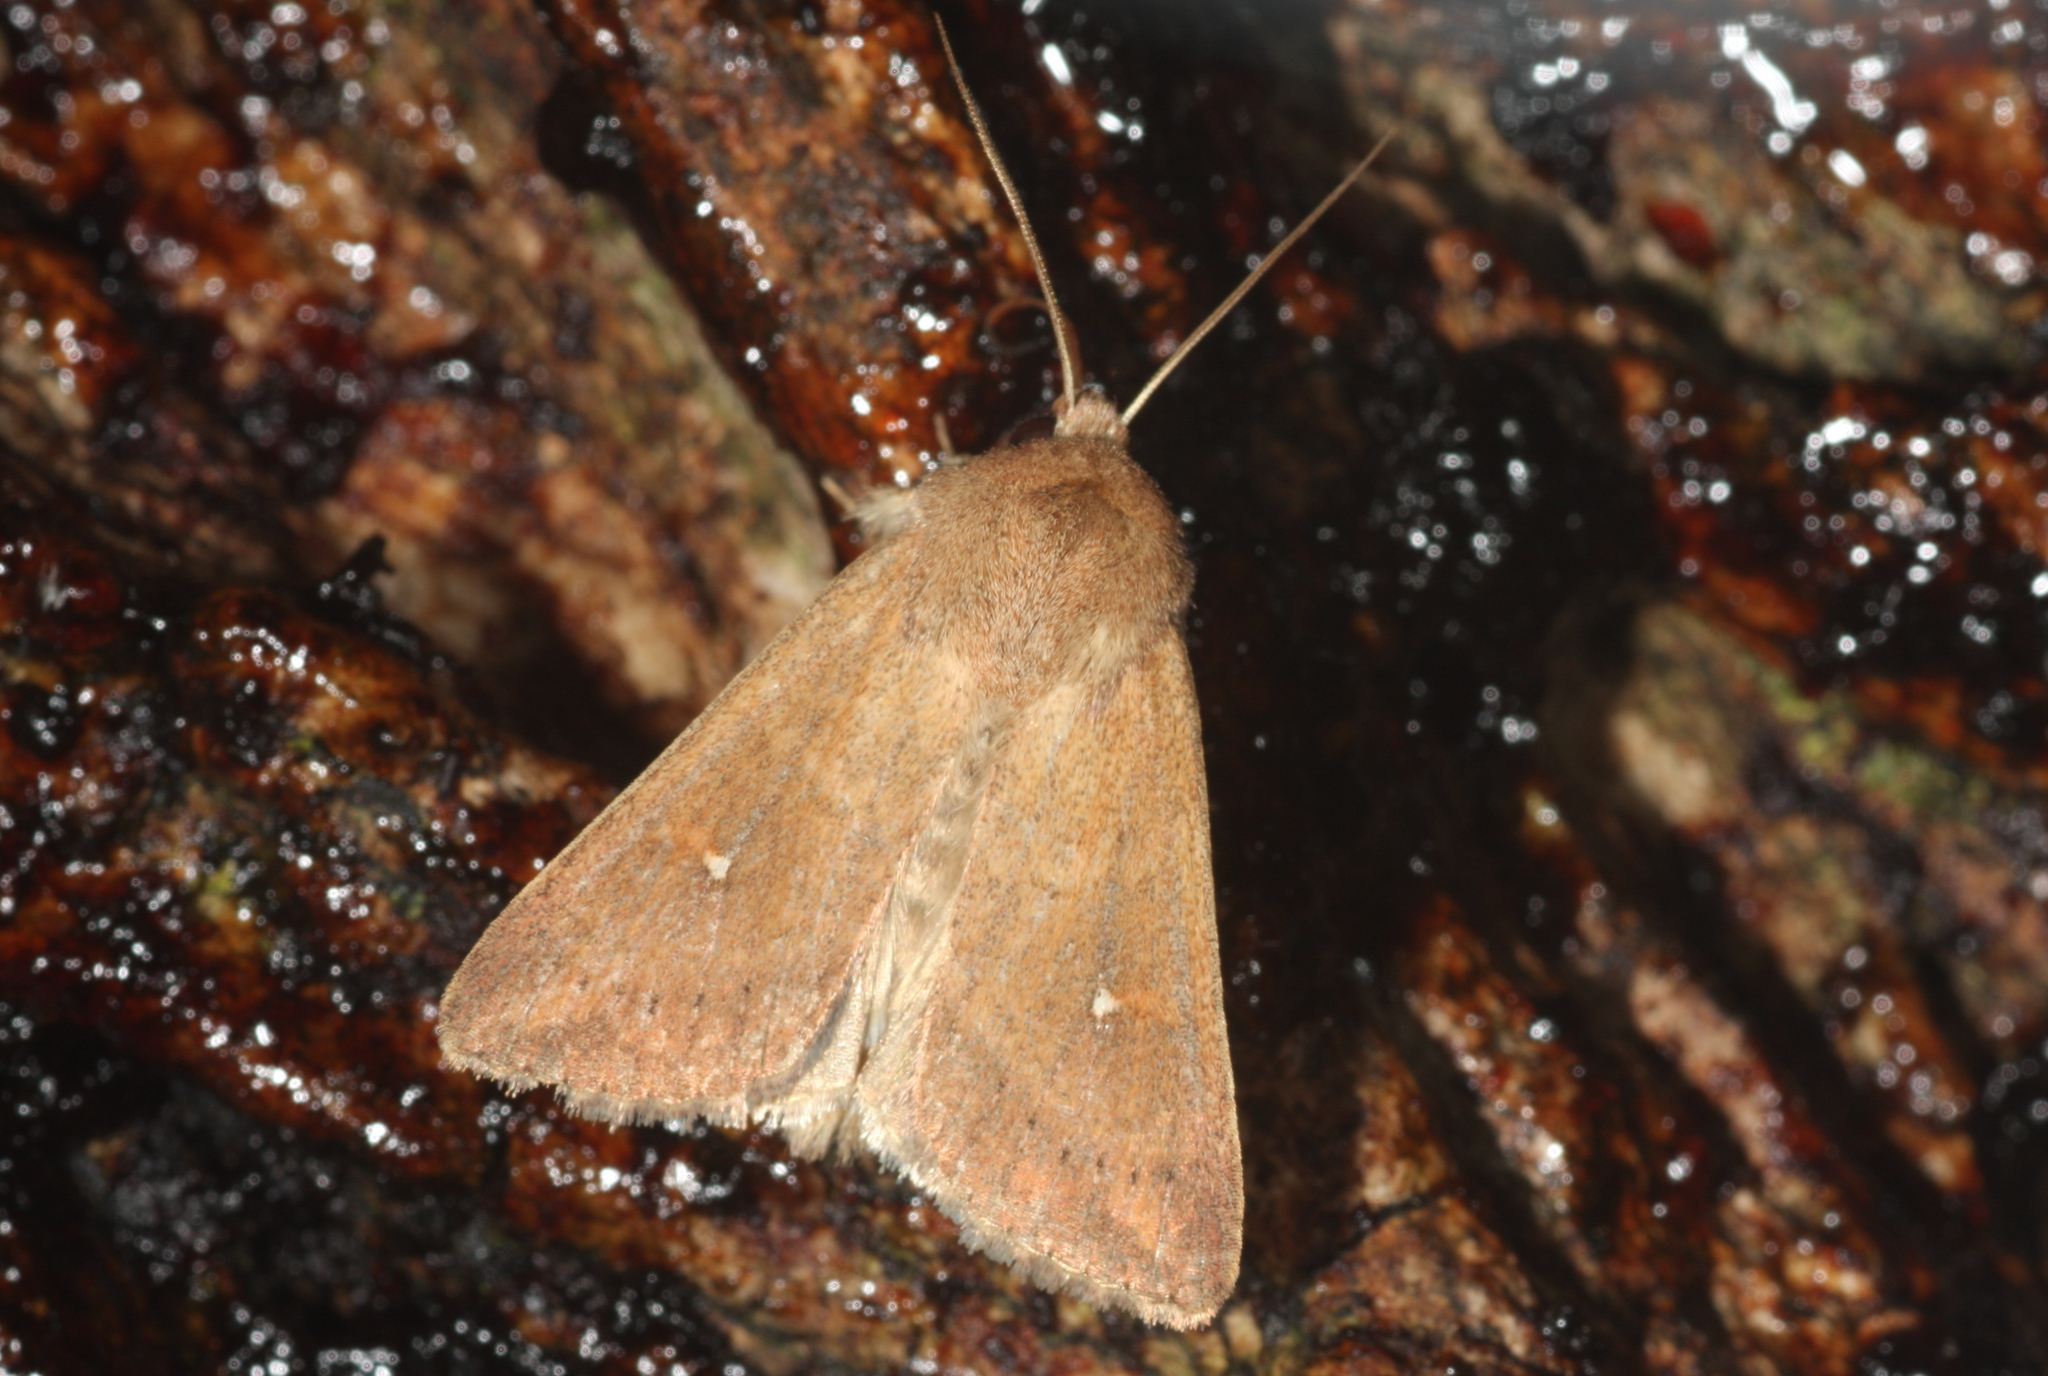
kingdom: Animalia
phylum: Arthropoda
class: Insecta
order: Lepidoptera
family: Noctuidae
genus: Mythimna
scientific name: Mythimna albipuncta
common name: White-point
